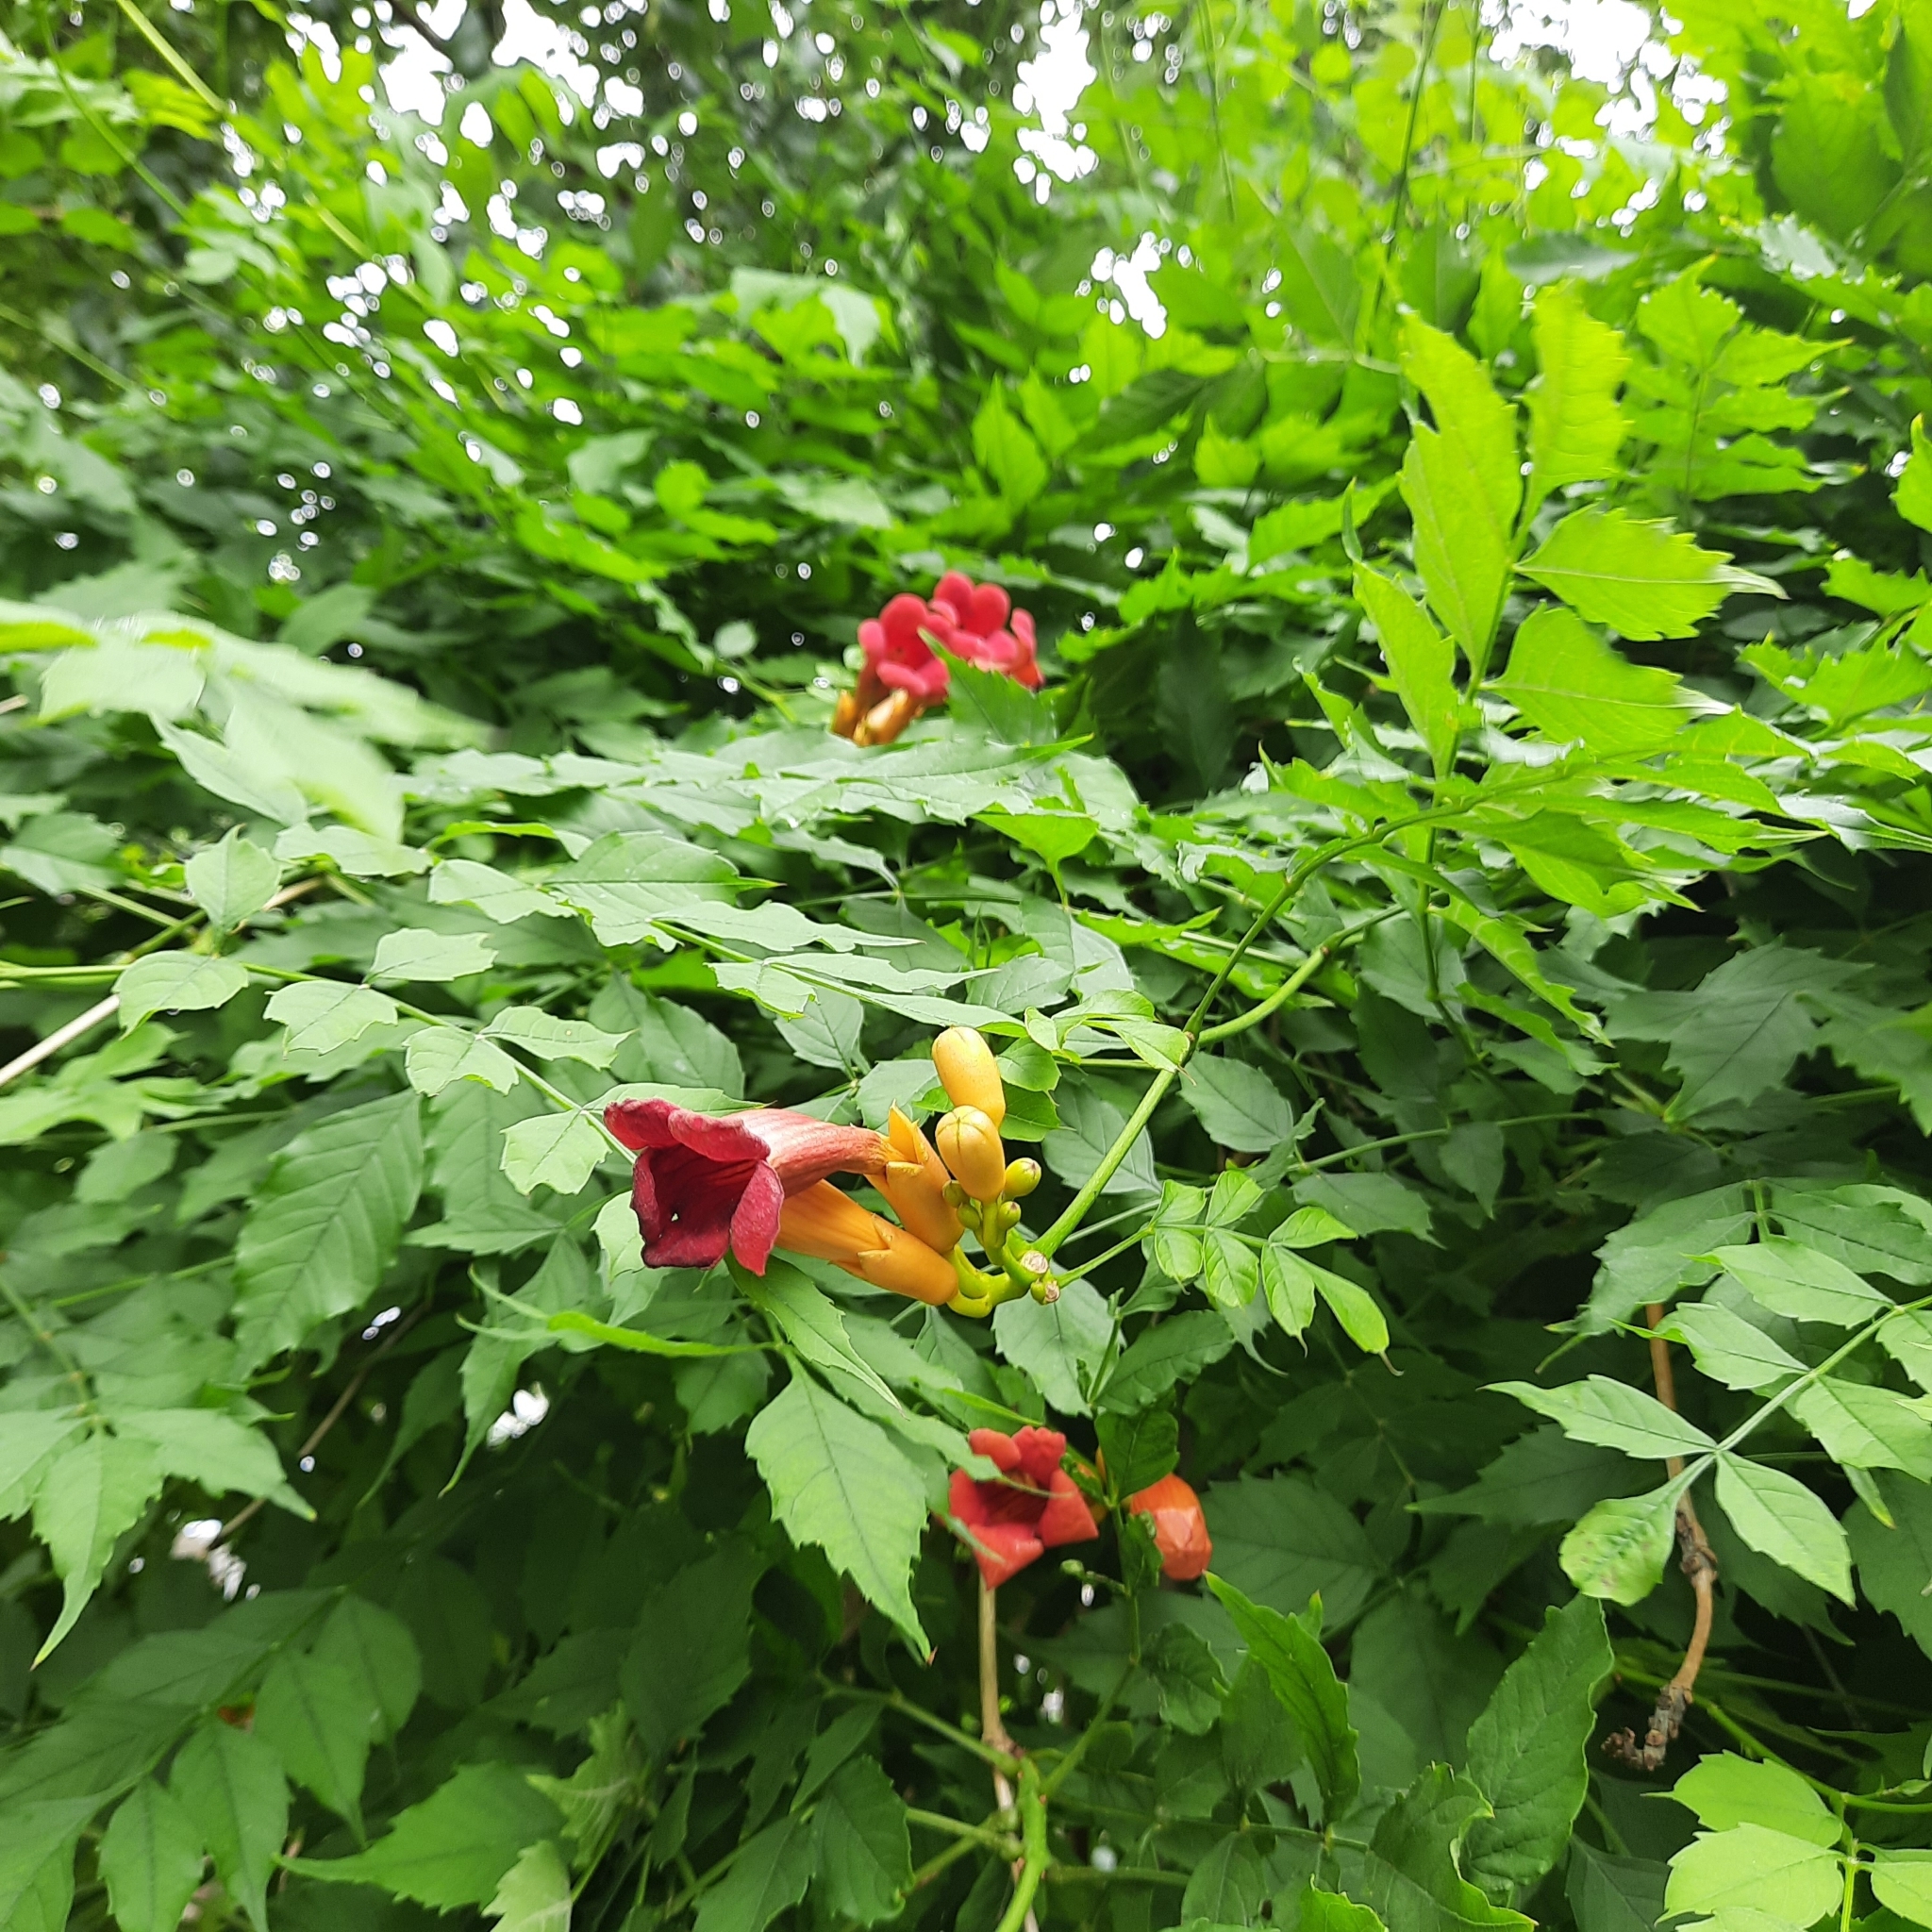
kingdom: Plantae
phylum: Tracheophyta
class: Magnoliopsida
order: Lamiales
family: Bignoniaceae
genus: Campsis
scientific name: Campsis radicans
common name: Trumpet-creeper
